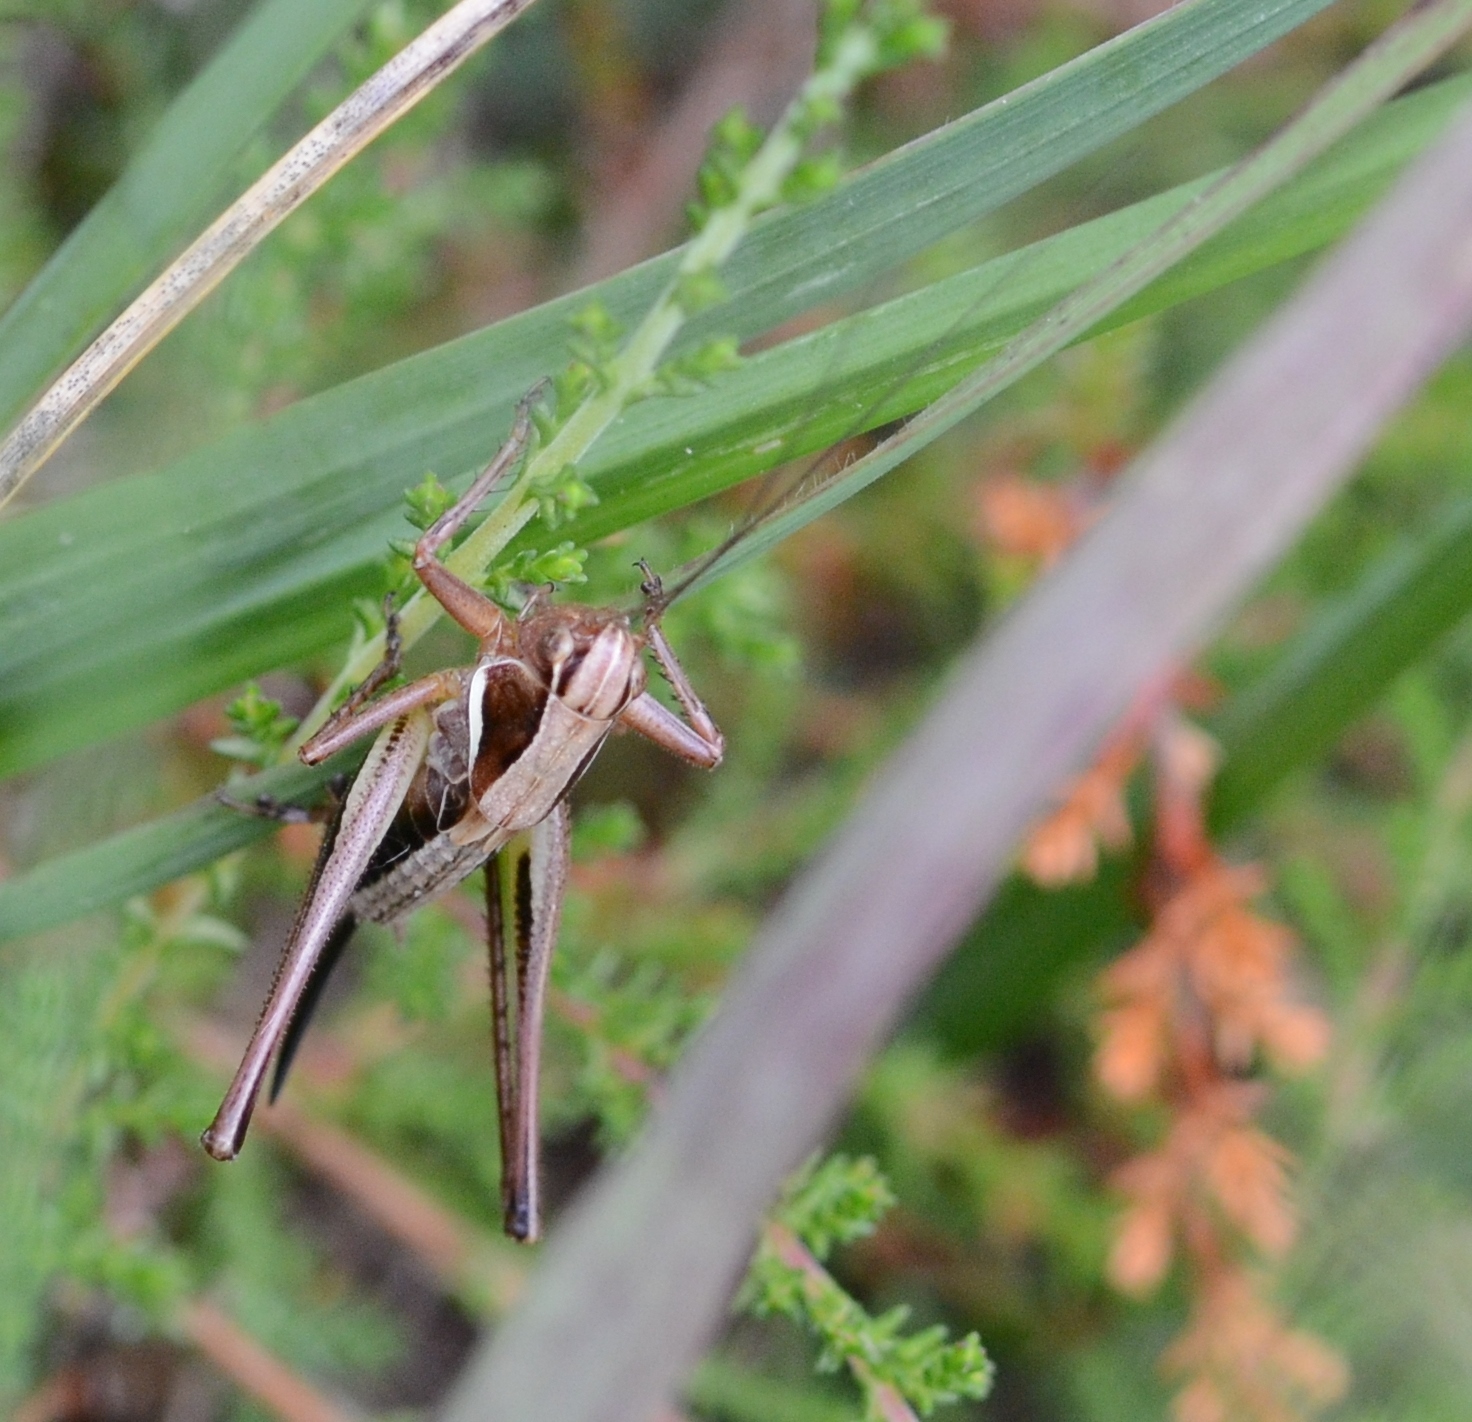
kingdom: Animalia
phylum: Arthropoda
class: Insecta
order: Orthoptera
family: Tettigoniidae
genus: Metrioptera
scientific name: Metrioptera brachyptera
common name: Bog bush-cricket
